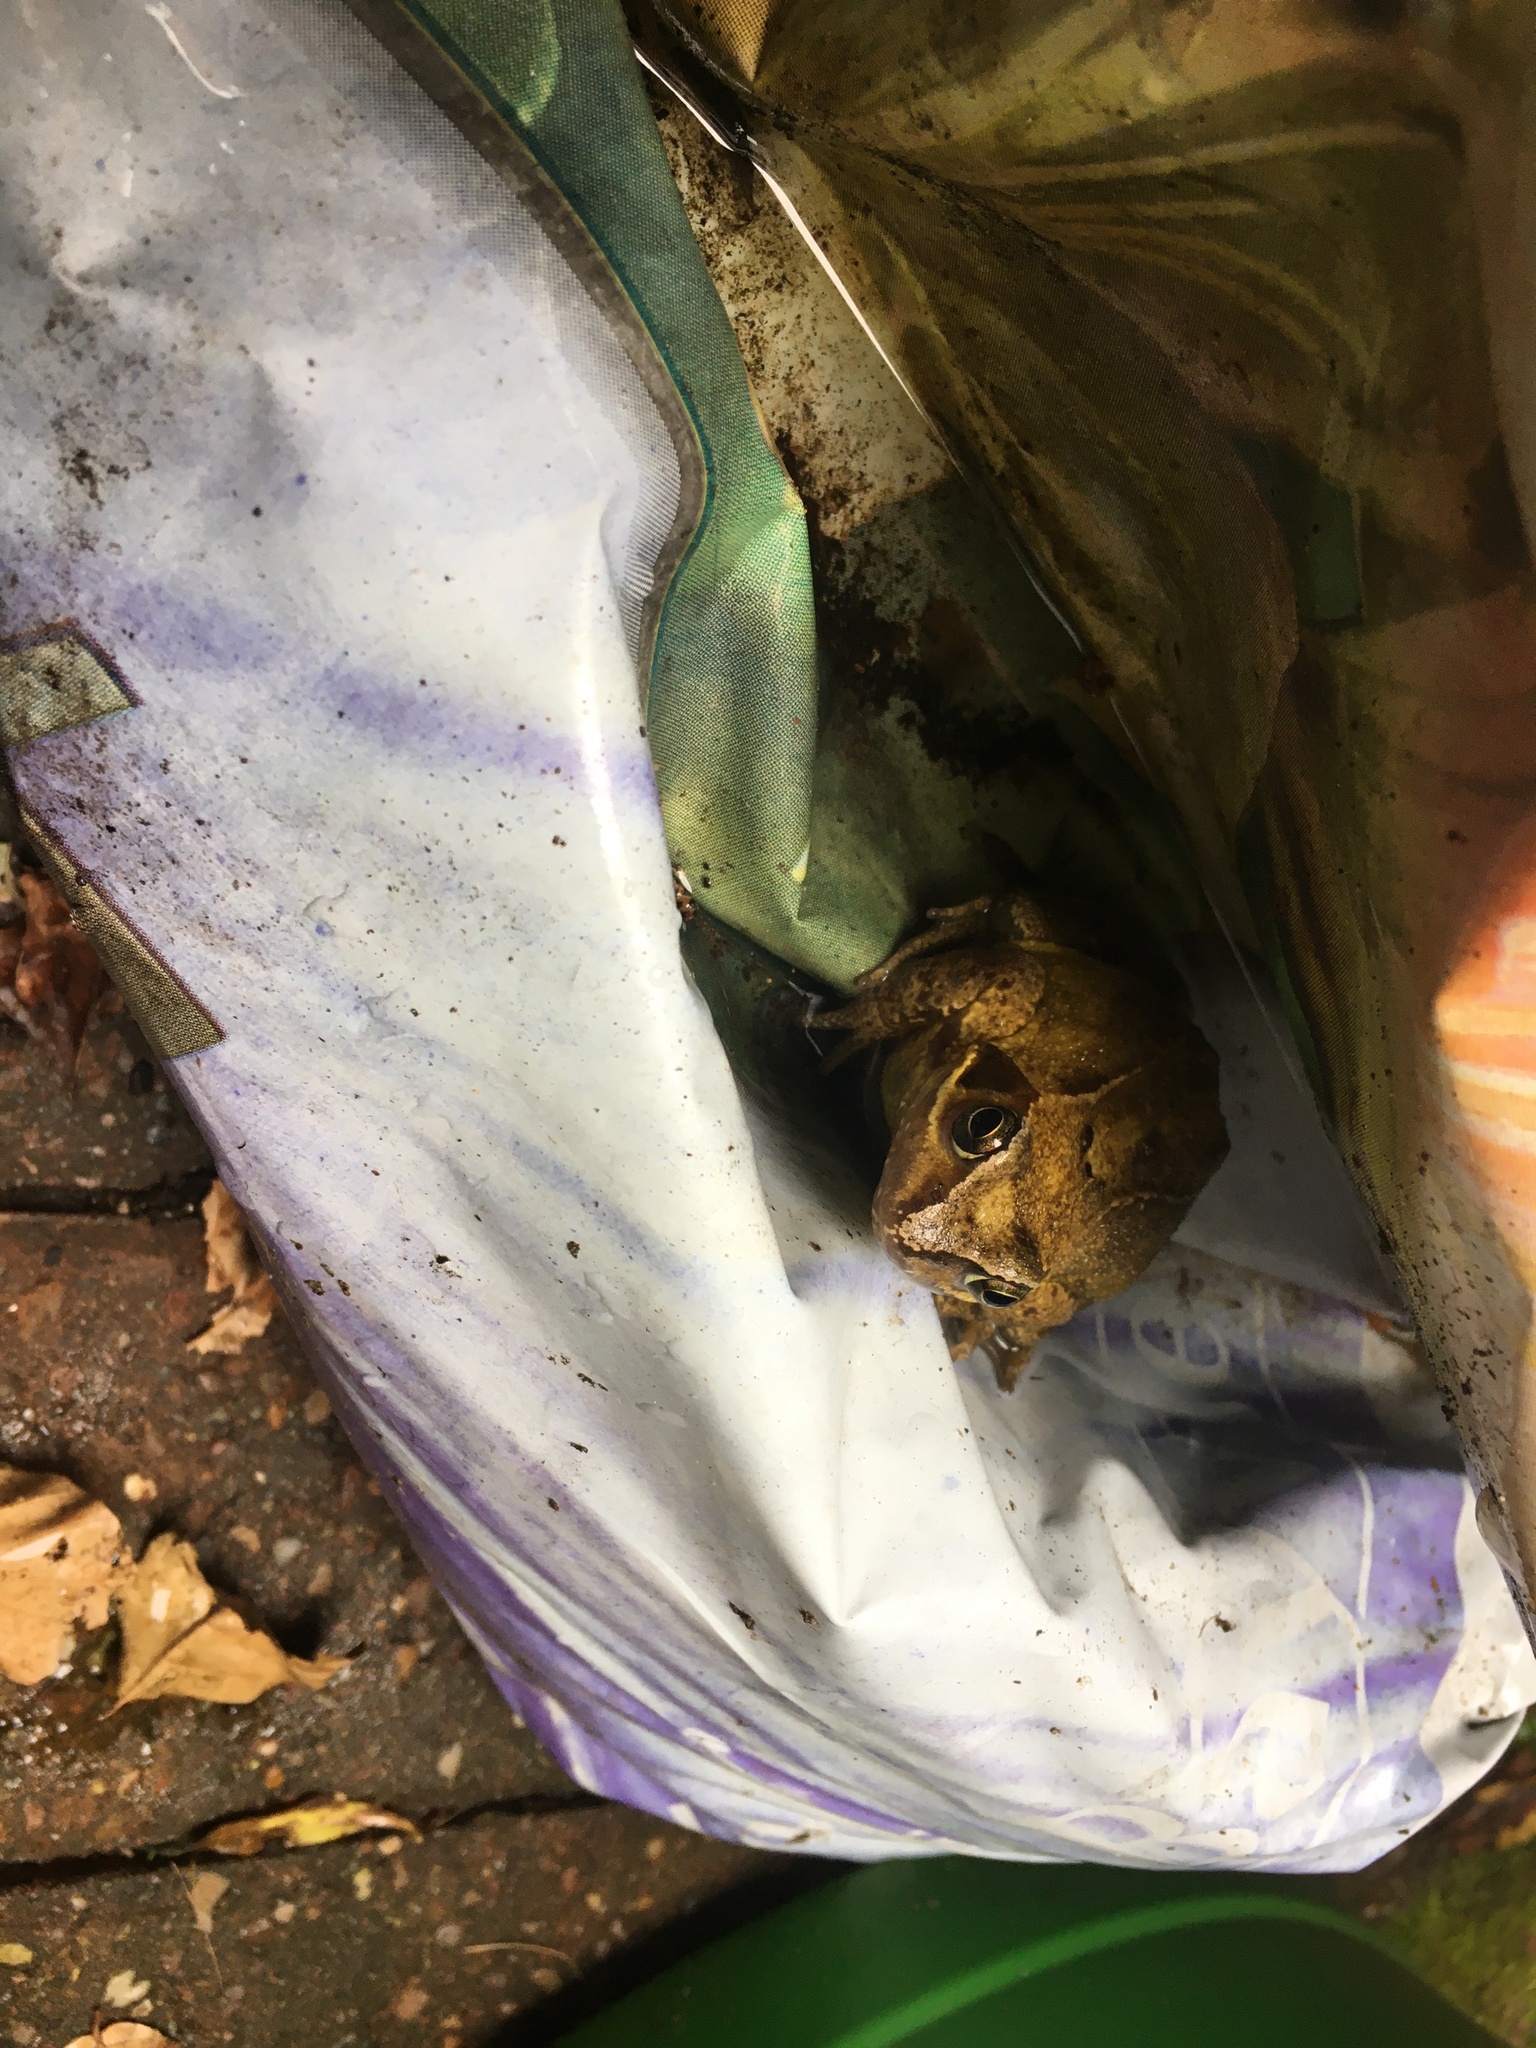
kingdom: Animalia
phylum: Chordata
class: Amphibia
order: Anura
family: Ranidae
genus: Rana
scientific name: Rana temporaria
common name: Common frog
